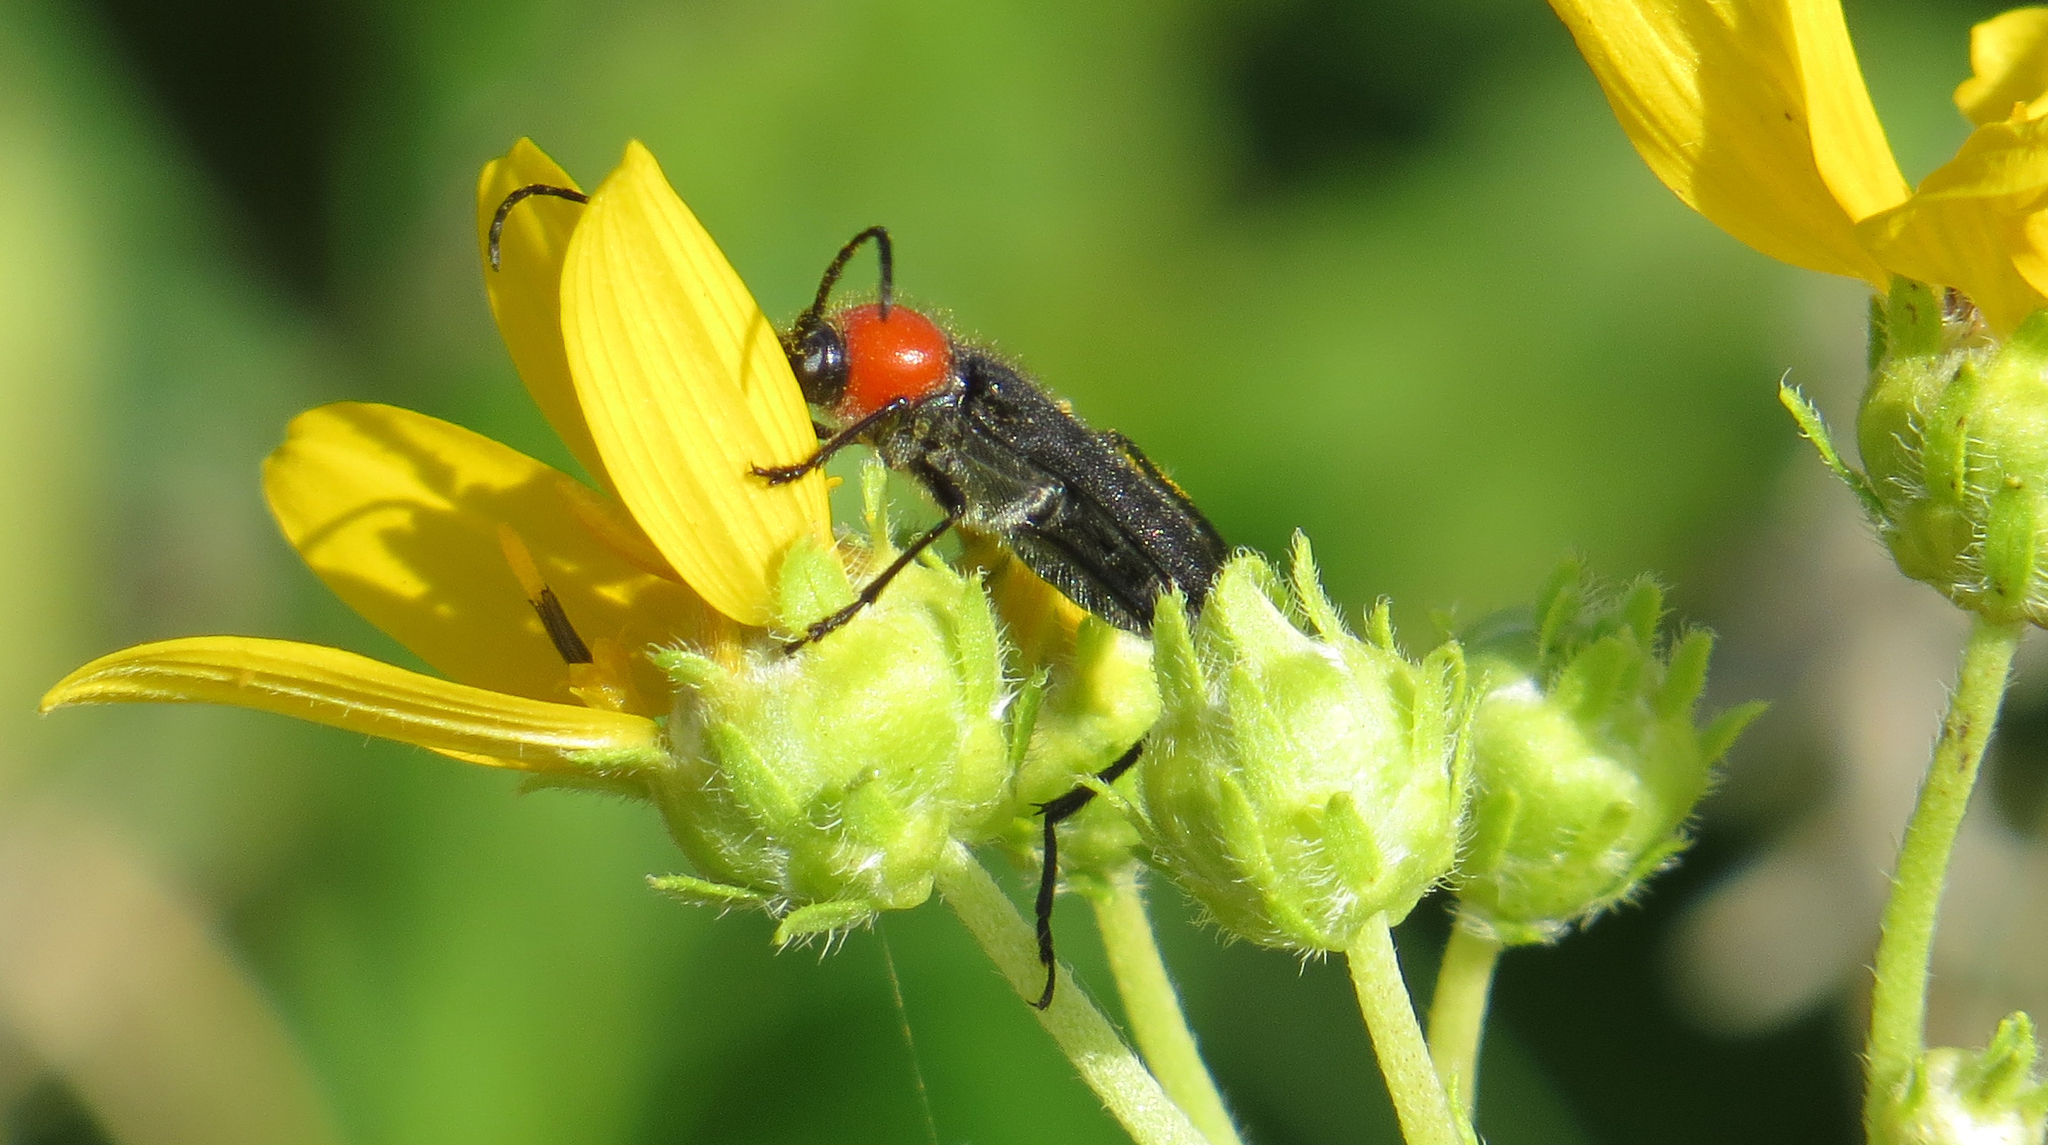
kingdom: Animalia
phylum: Arthropoda
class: Insecta
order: Coleoptera
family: Cerambycidae
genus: Batyle
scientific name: Batyle ignicollis
